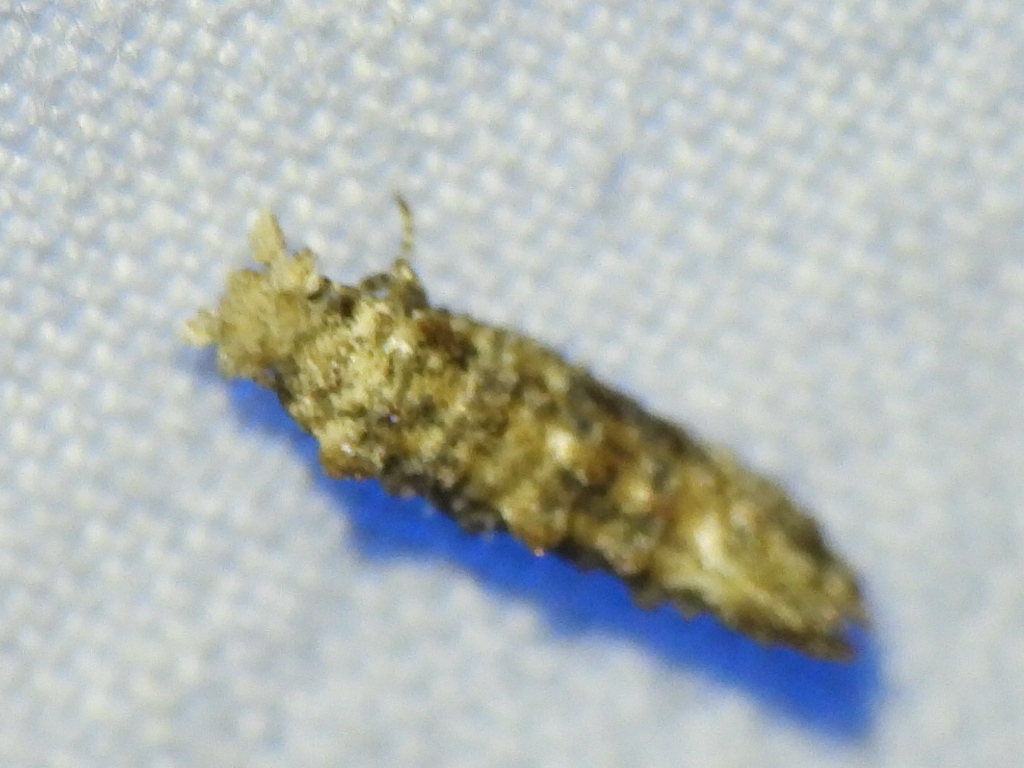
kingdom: Animalia
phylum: Arthropoda
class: Insecta
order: Lepidoptera
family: Tineidae
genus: Xylesthia
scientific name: Xylesthia pruniramiella
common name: Clemens' bark moth
